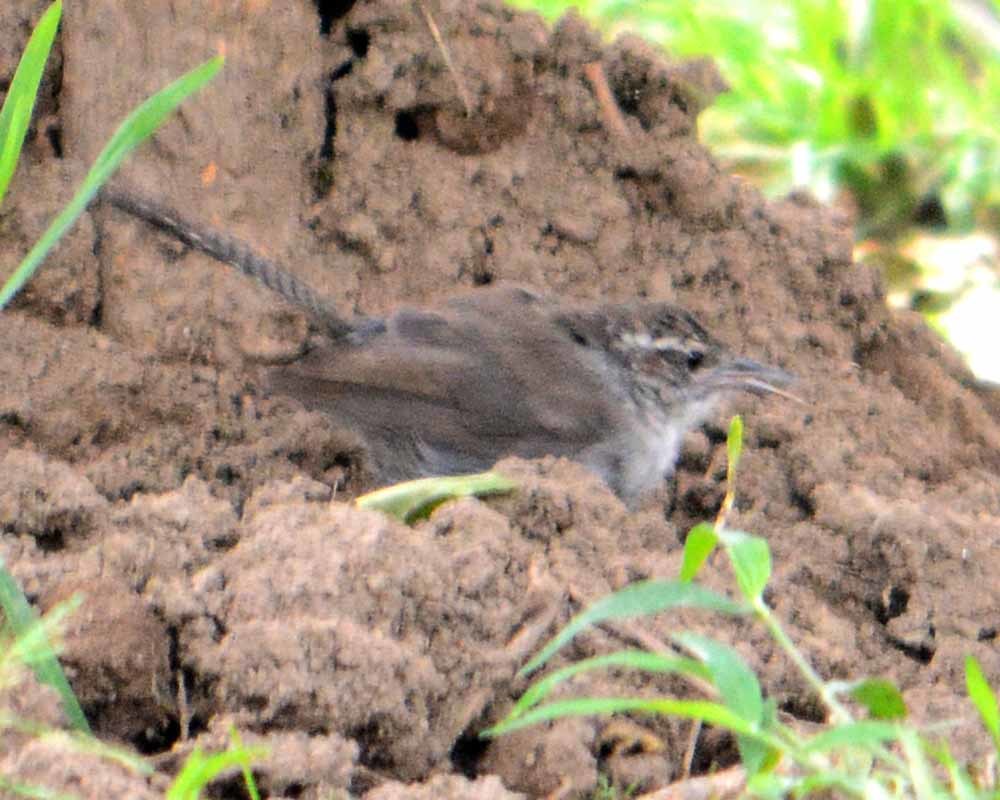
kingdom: Animalia
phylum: Chordata
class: Aves
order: Passeriformes
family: Troglodytidae
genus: Thryomanes
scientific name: Thryomanes bewickii
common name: Bewick's wren
